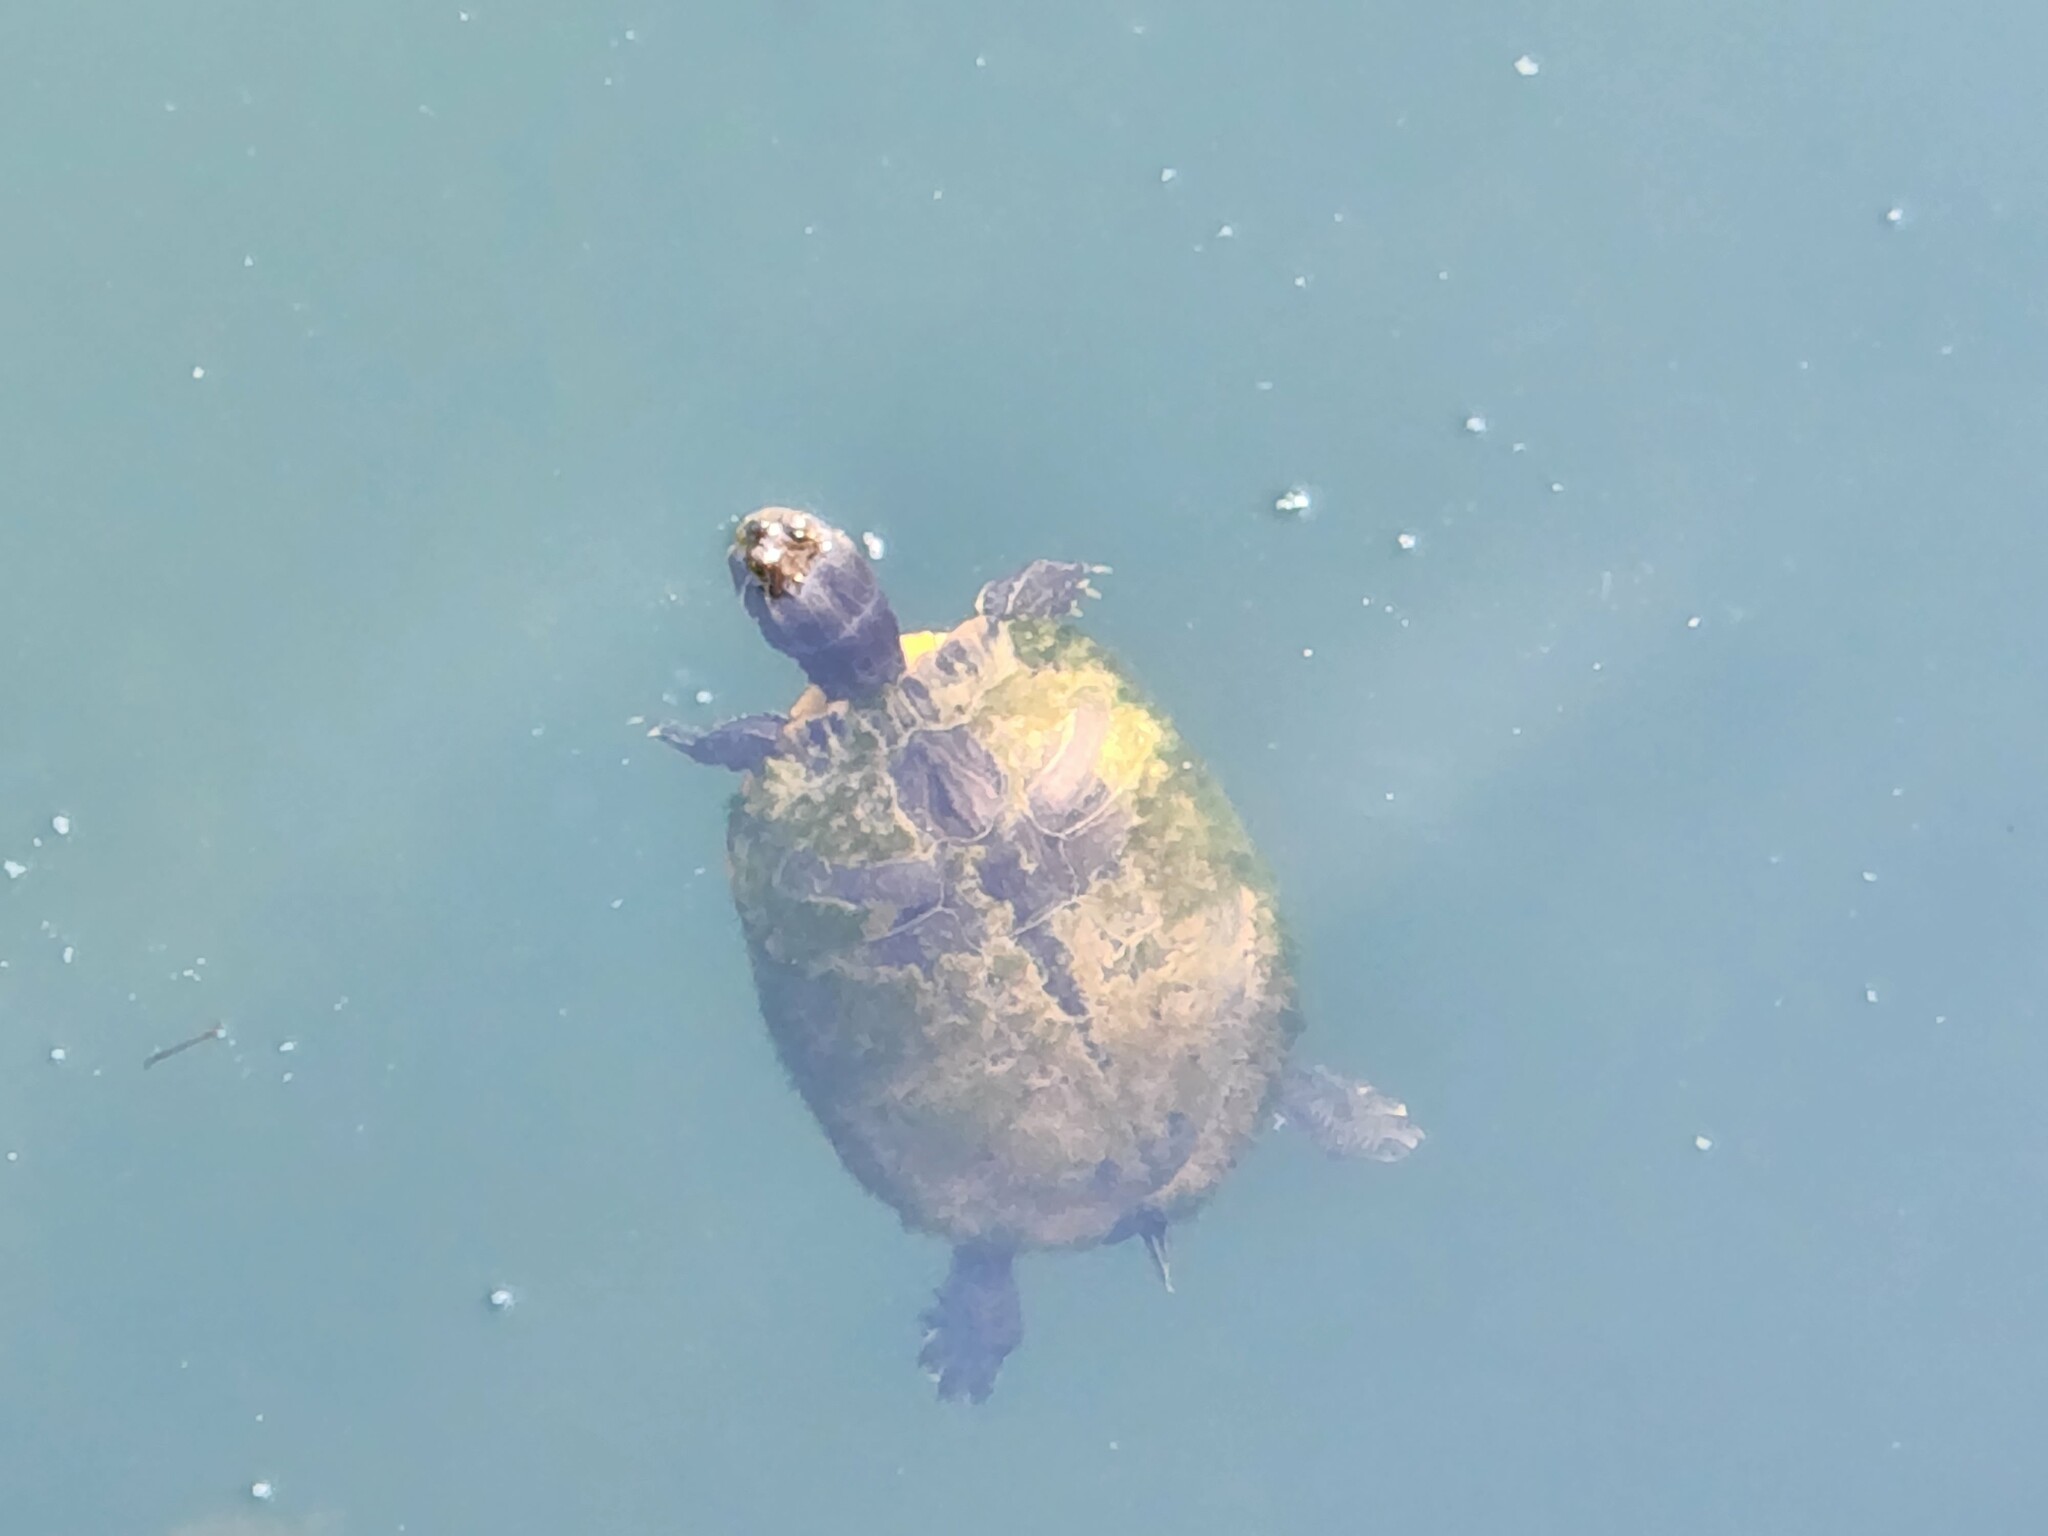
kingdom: Animalia
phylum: Chordata
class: Testudines
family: Emydidae
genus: Trachemys
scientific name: Trachemys scripta
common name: Slider
